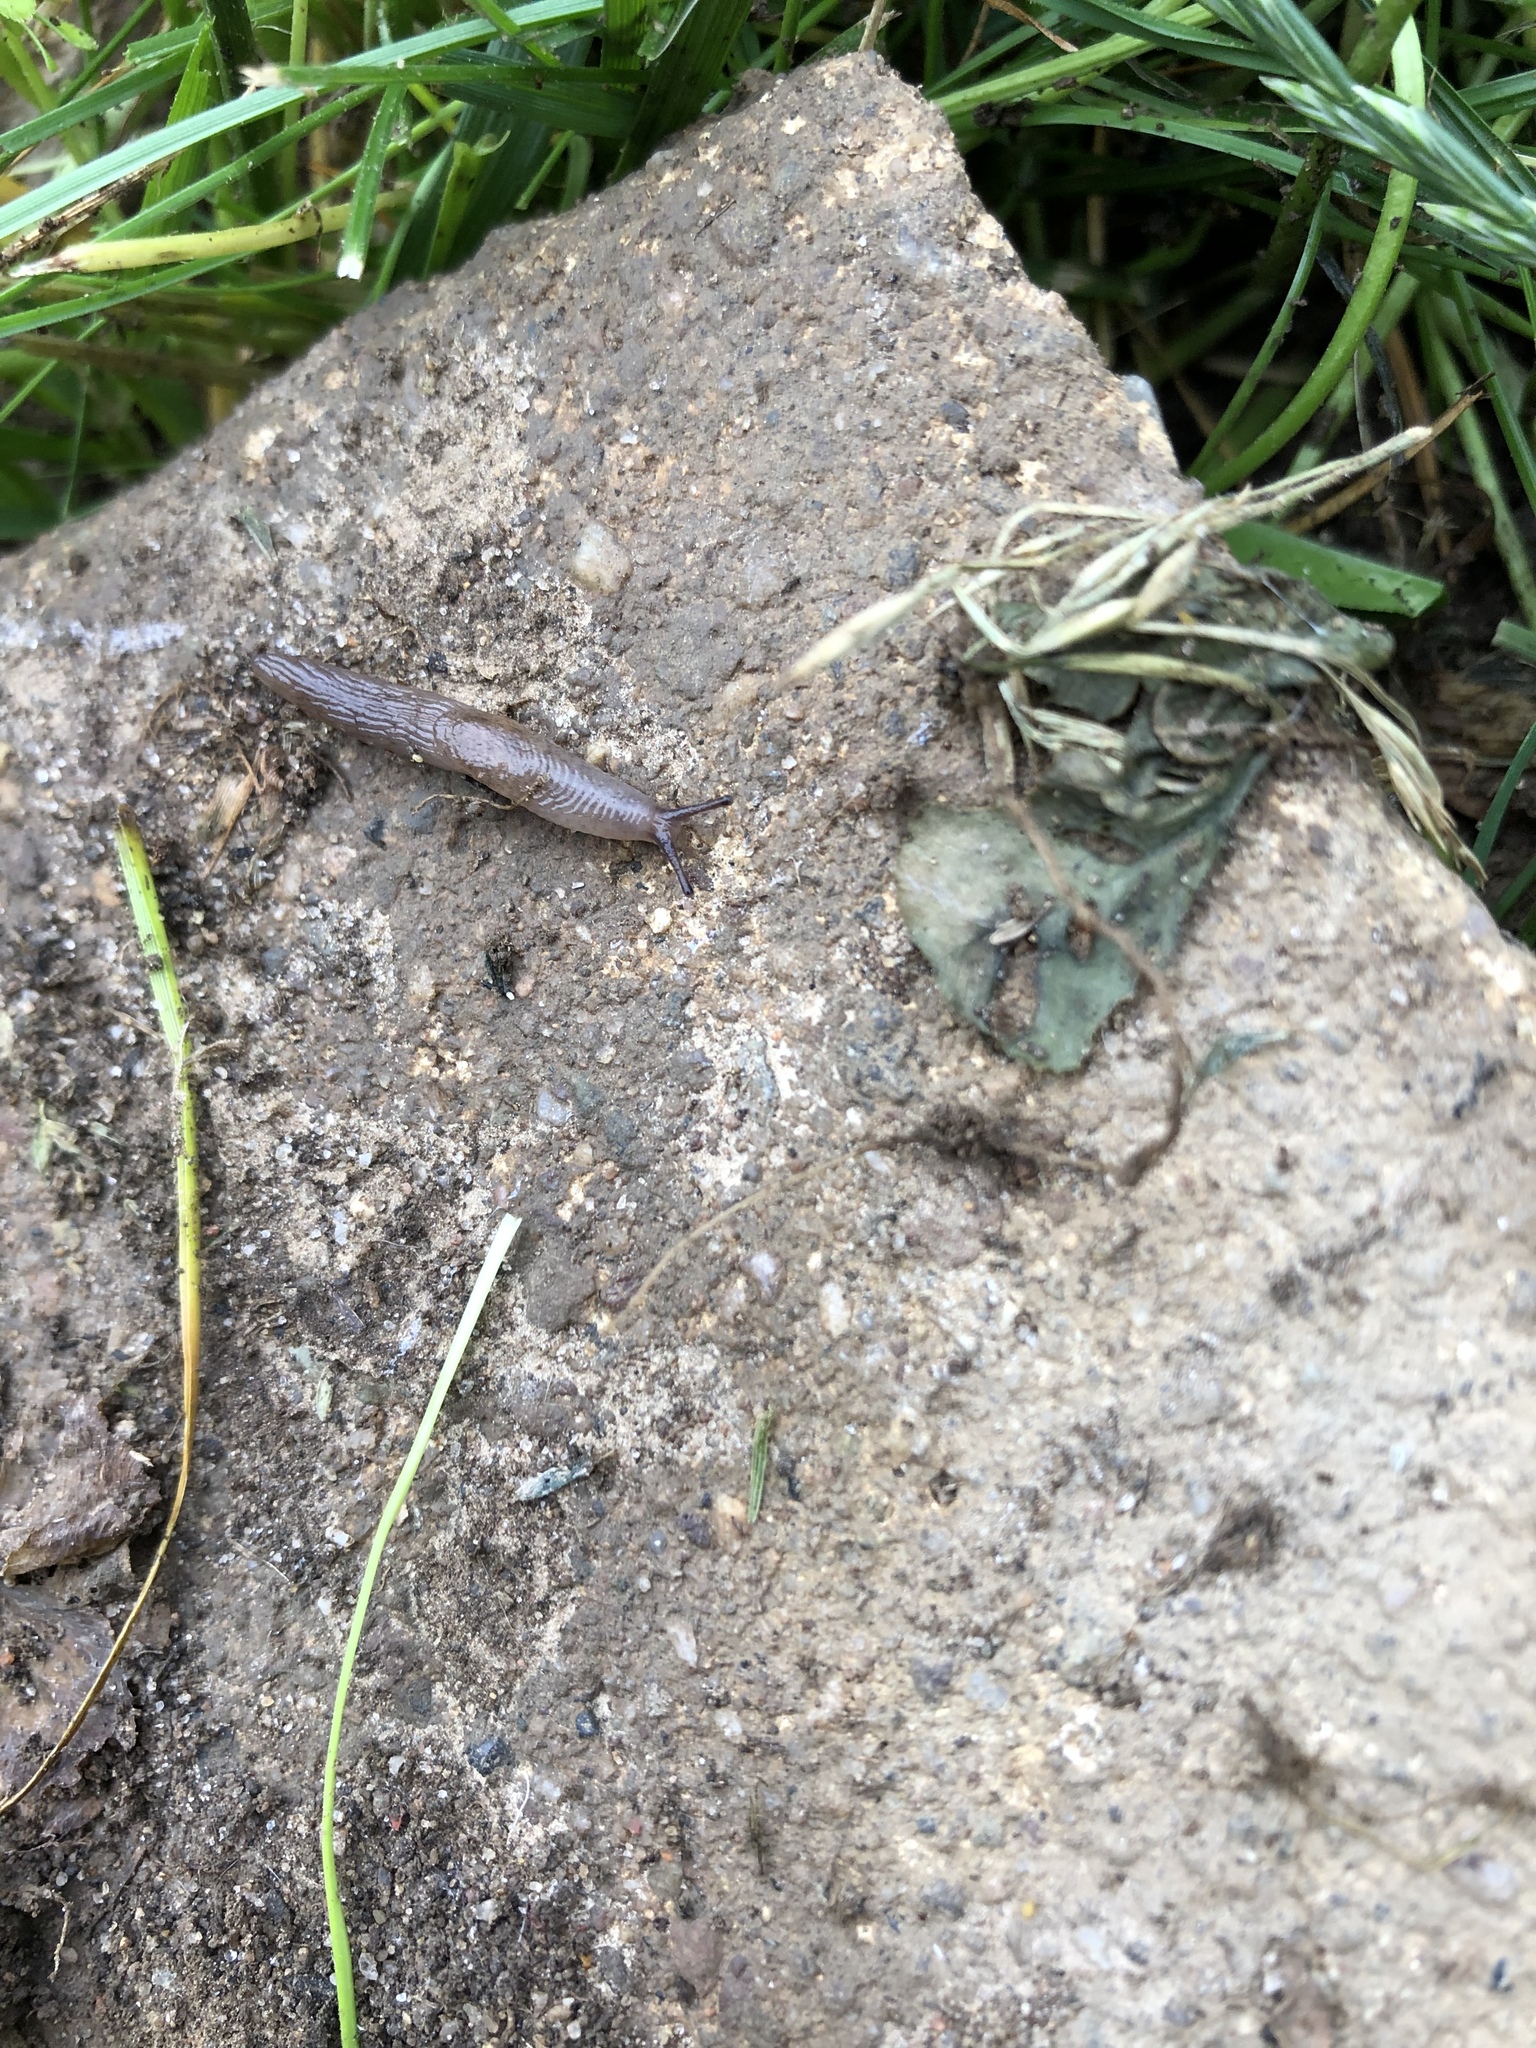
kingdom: Animalia
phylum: Mollusca
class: Gastropoda
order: Stylommatophora
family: Agriolimacidae
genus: Deroceras
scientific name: Deroceras
